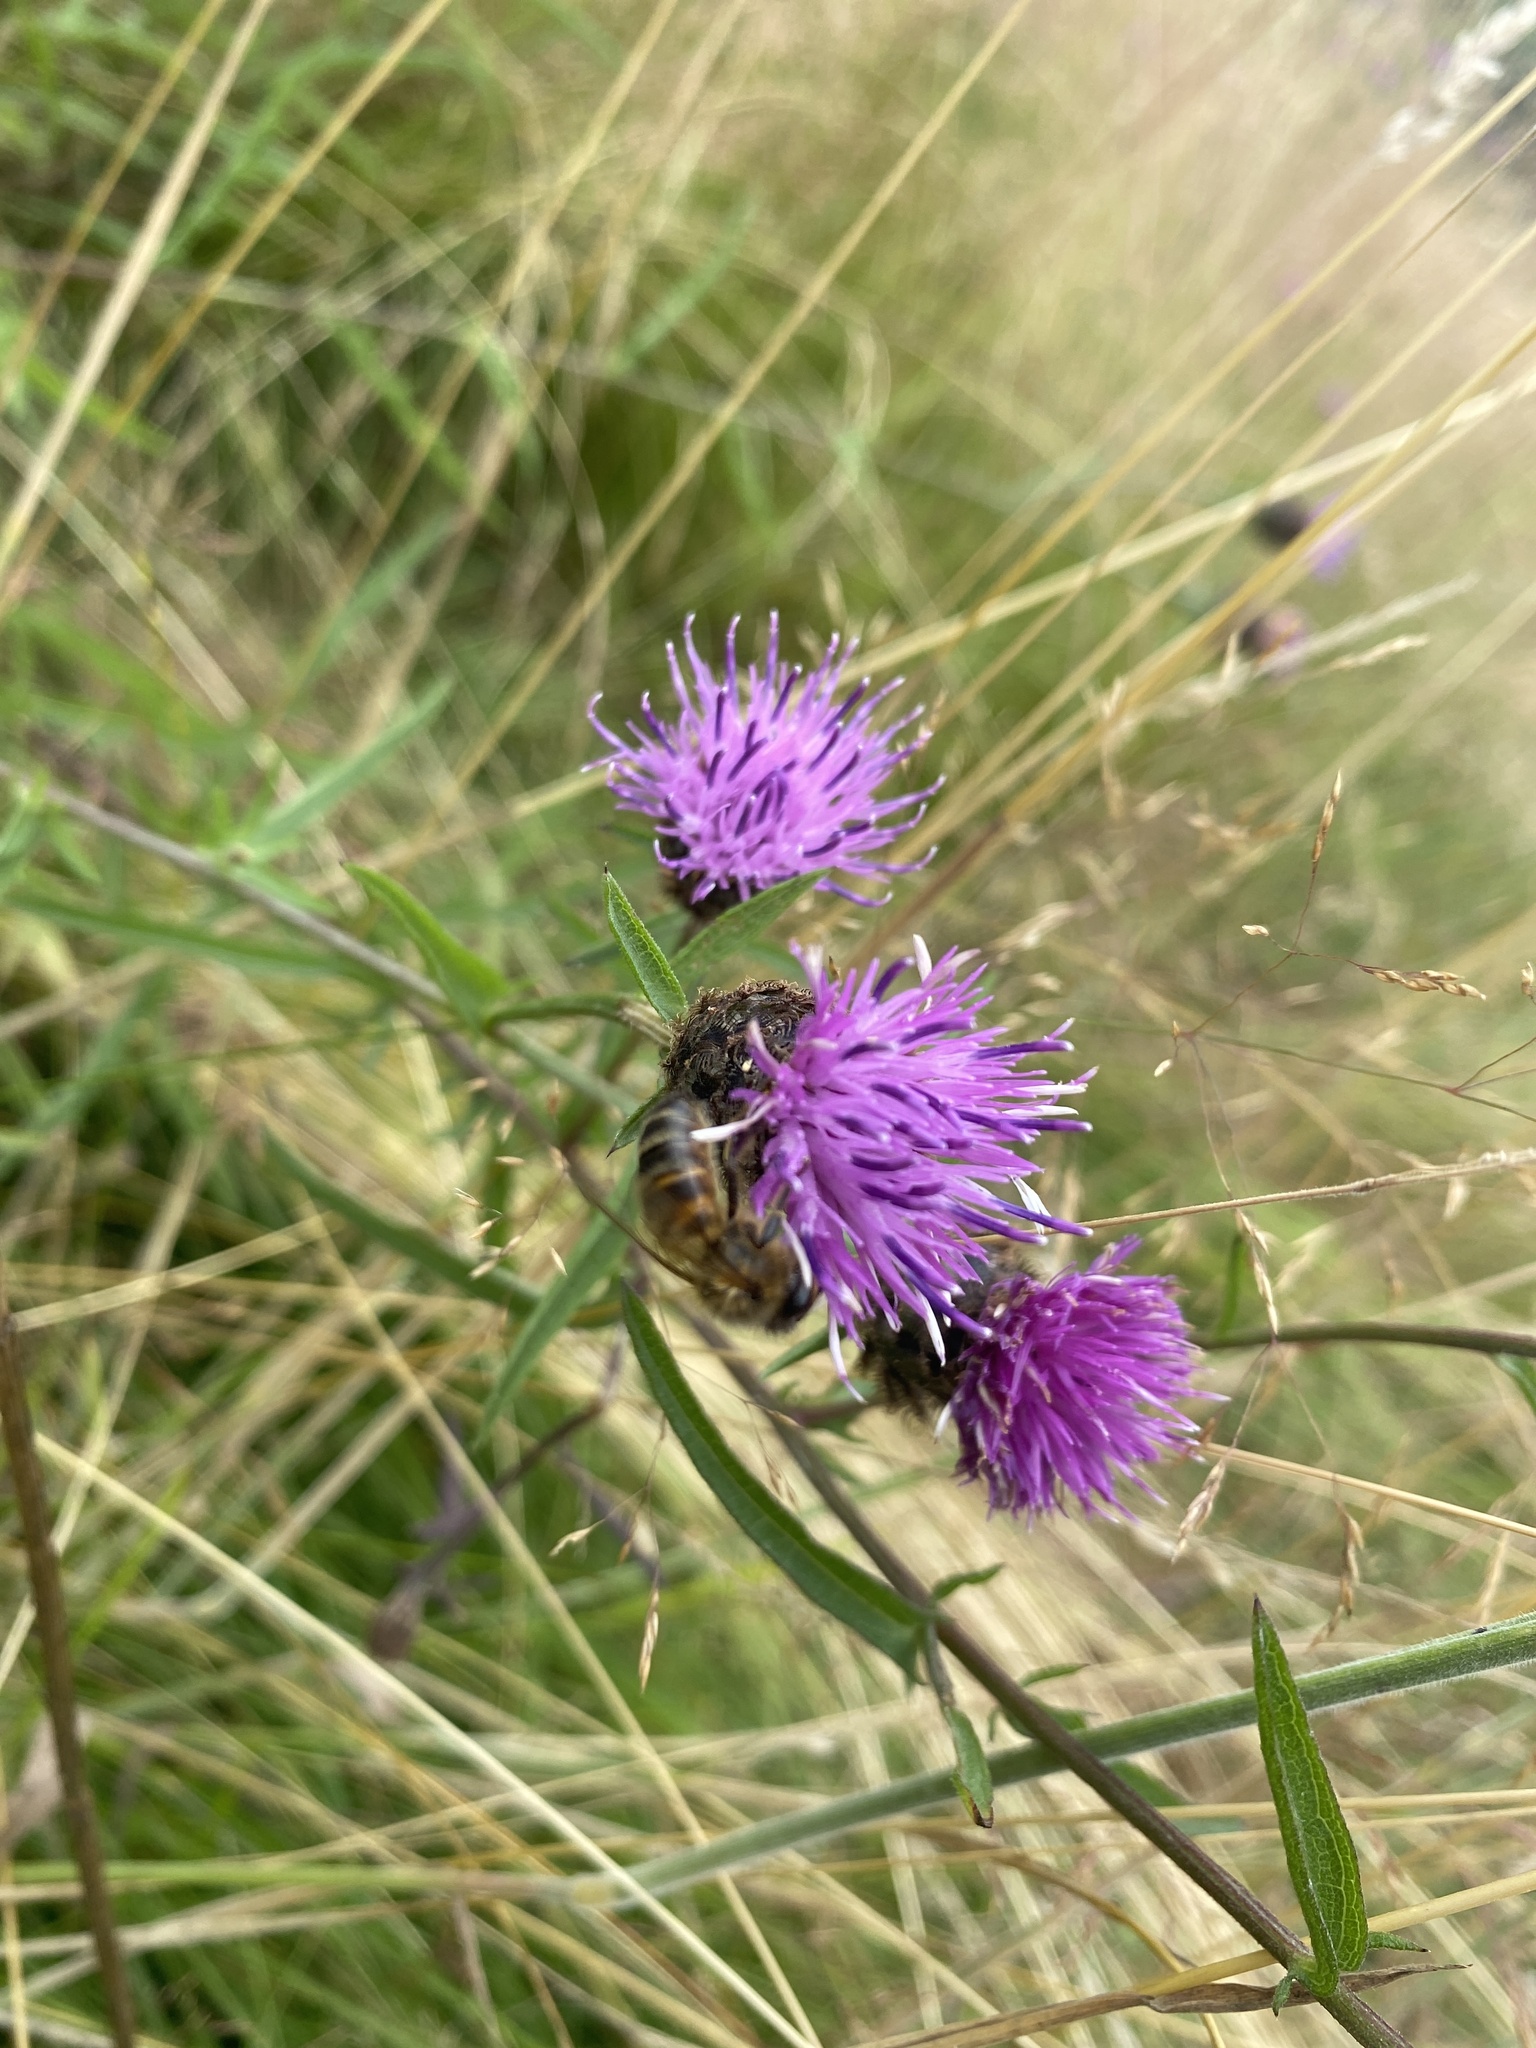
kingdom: Animalia
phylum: Arthropoda
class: Insecta
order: Hymenoptera
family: Apidae
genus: Apis
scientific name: Apis mellifera
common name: Honey bee
